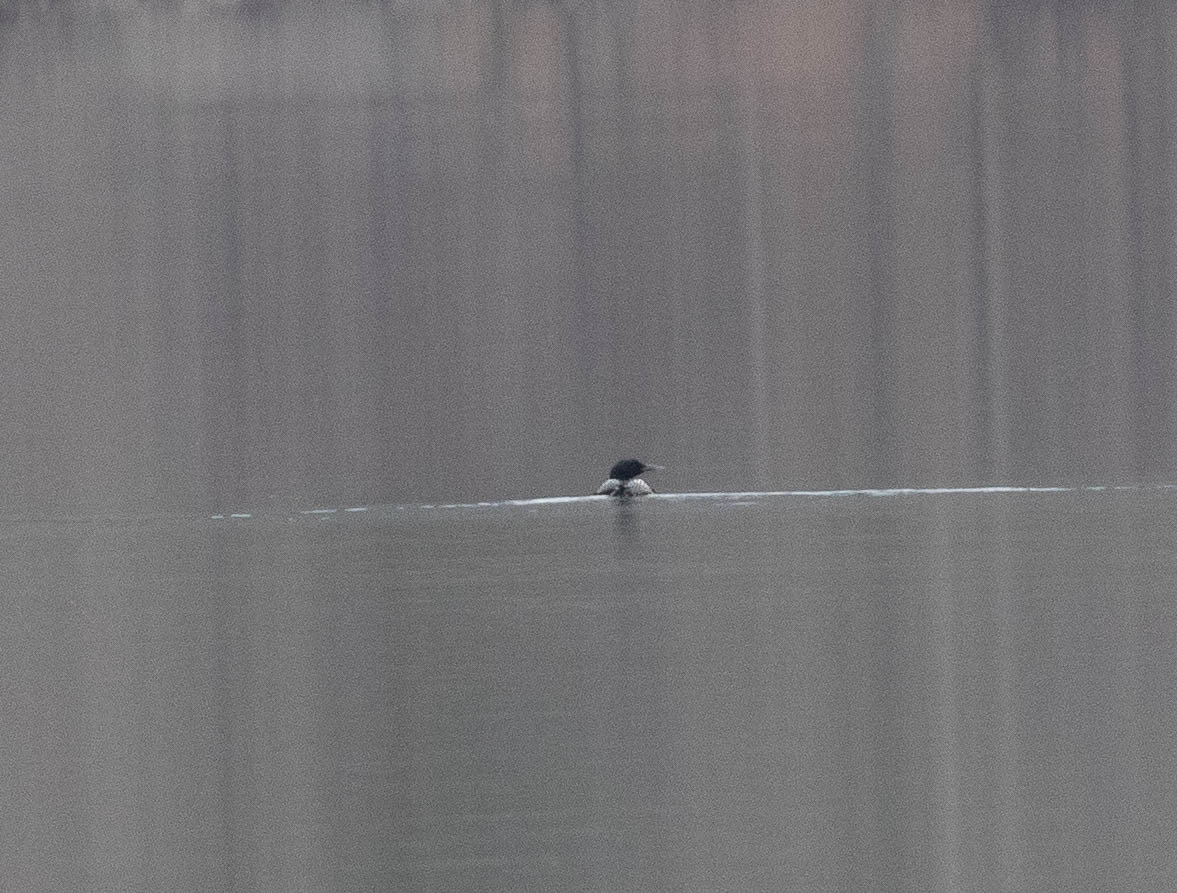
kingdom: Animalia
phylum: Chordata
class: Aves
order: Gaviiformes
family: Gaviidae
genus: Gavia
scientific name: Gavia immer
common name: Common loon
